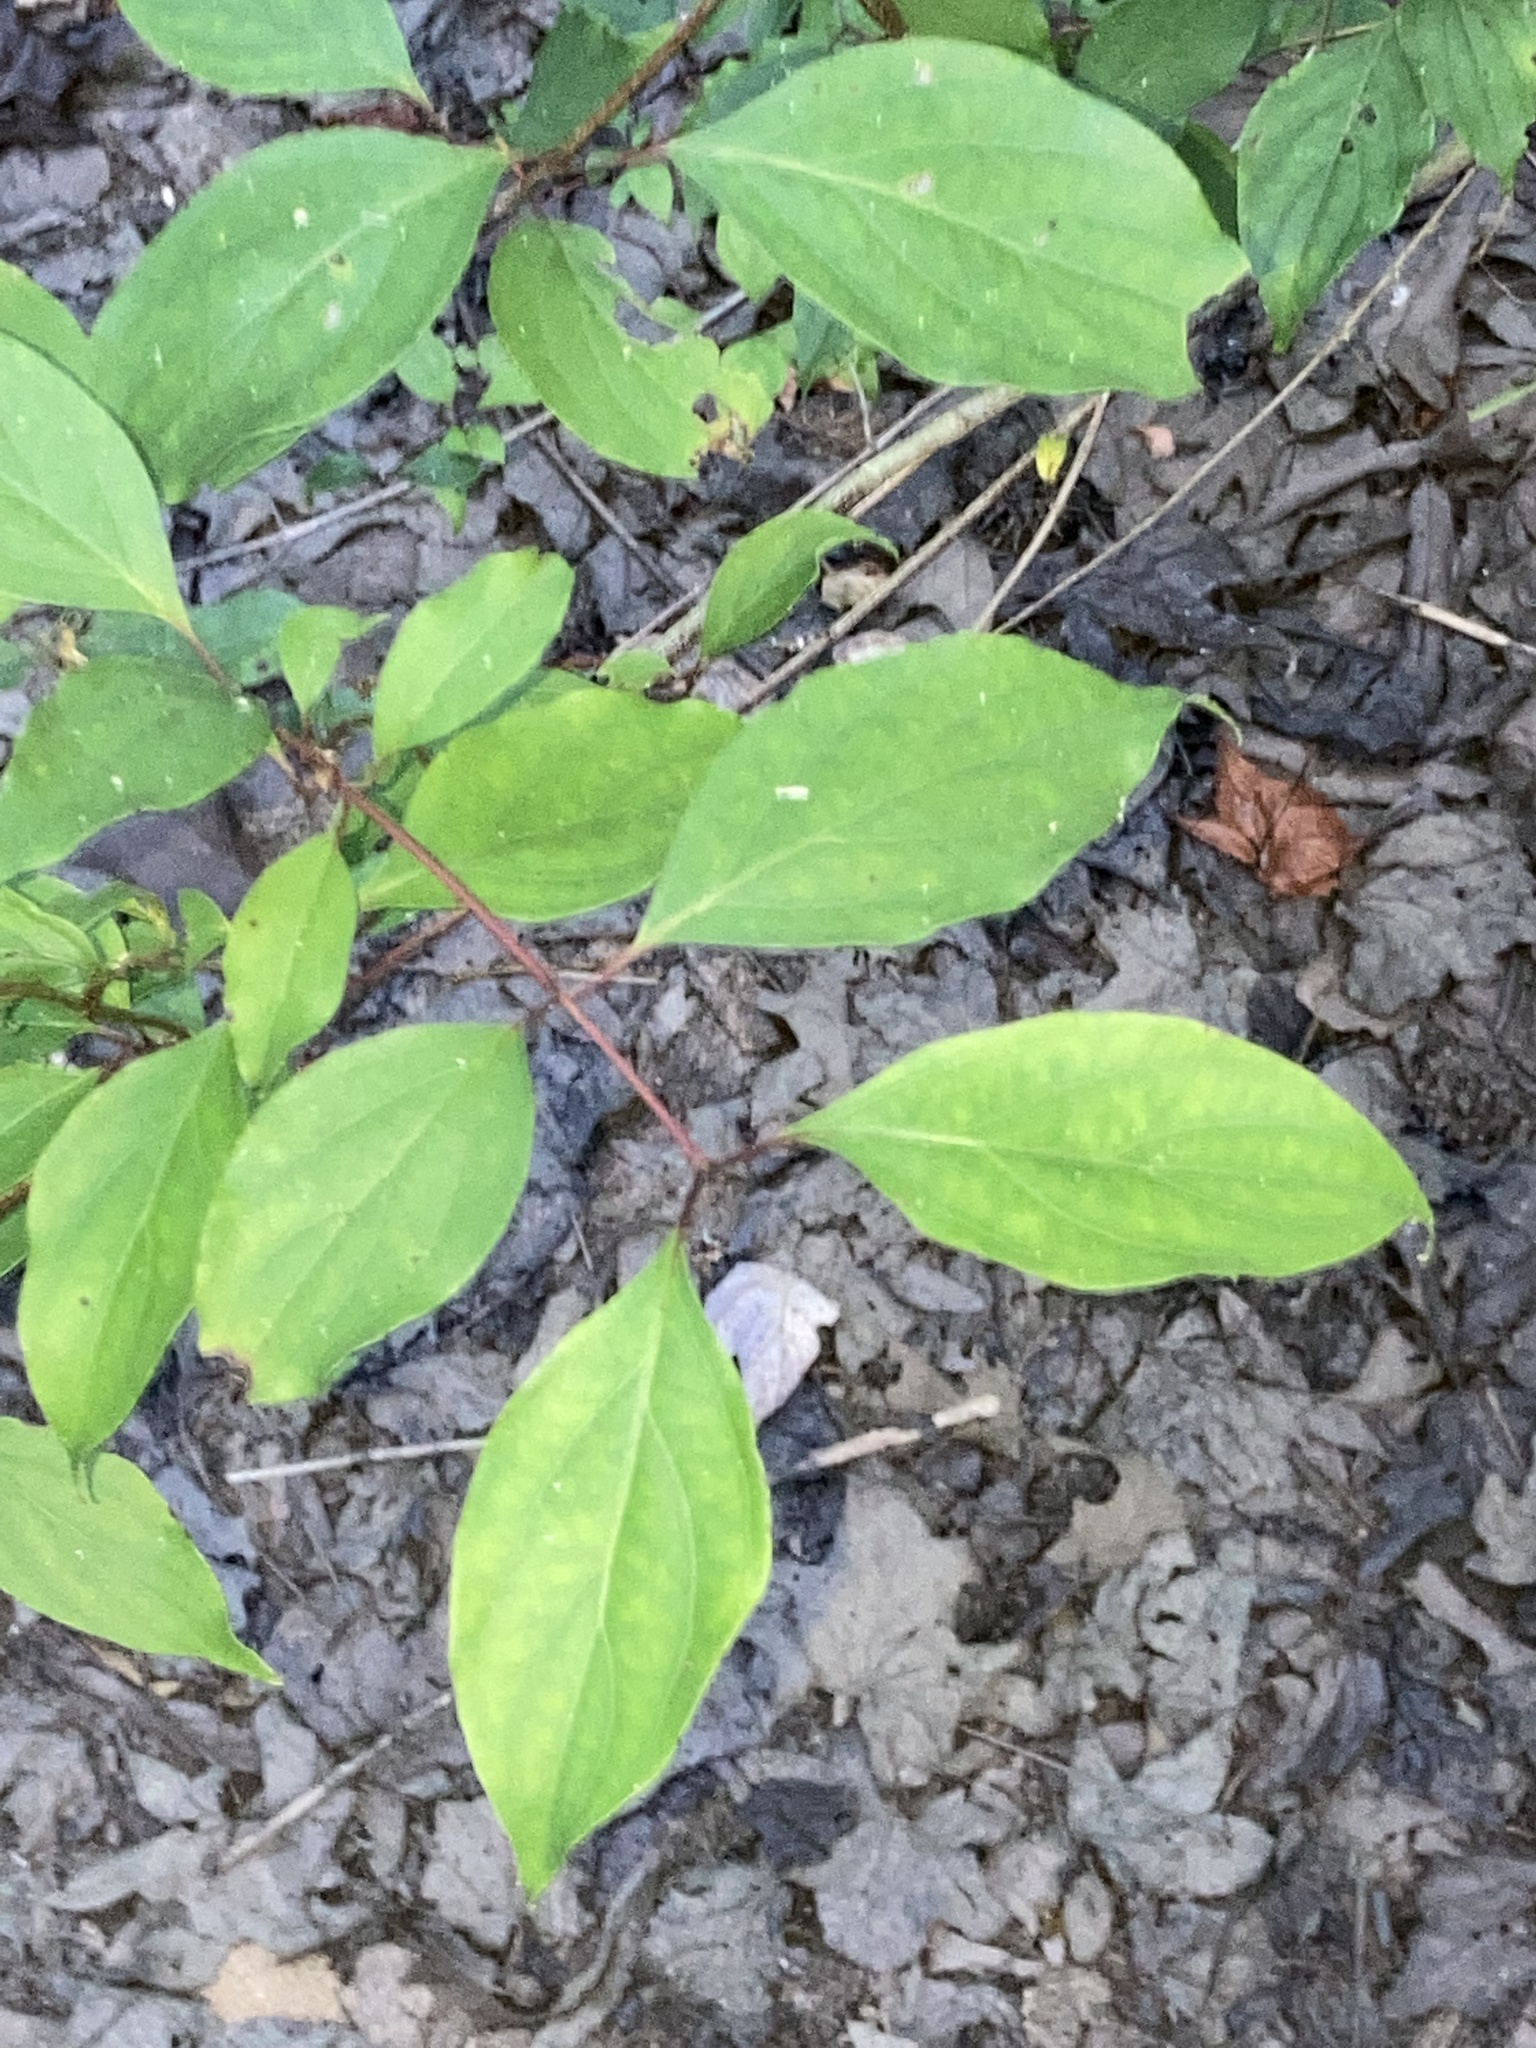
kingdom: Plantae
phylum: Tracheophyta
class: Magnoliopsida
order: Cornales
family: Cornaceae
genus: Cornus
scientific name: Cornus foemina
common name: Swamp dogwood
